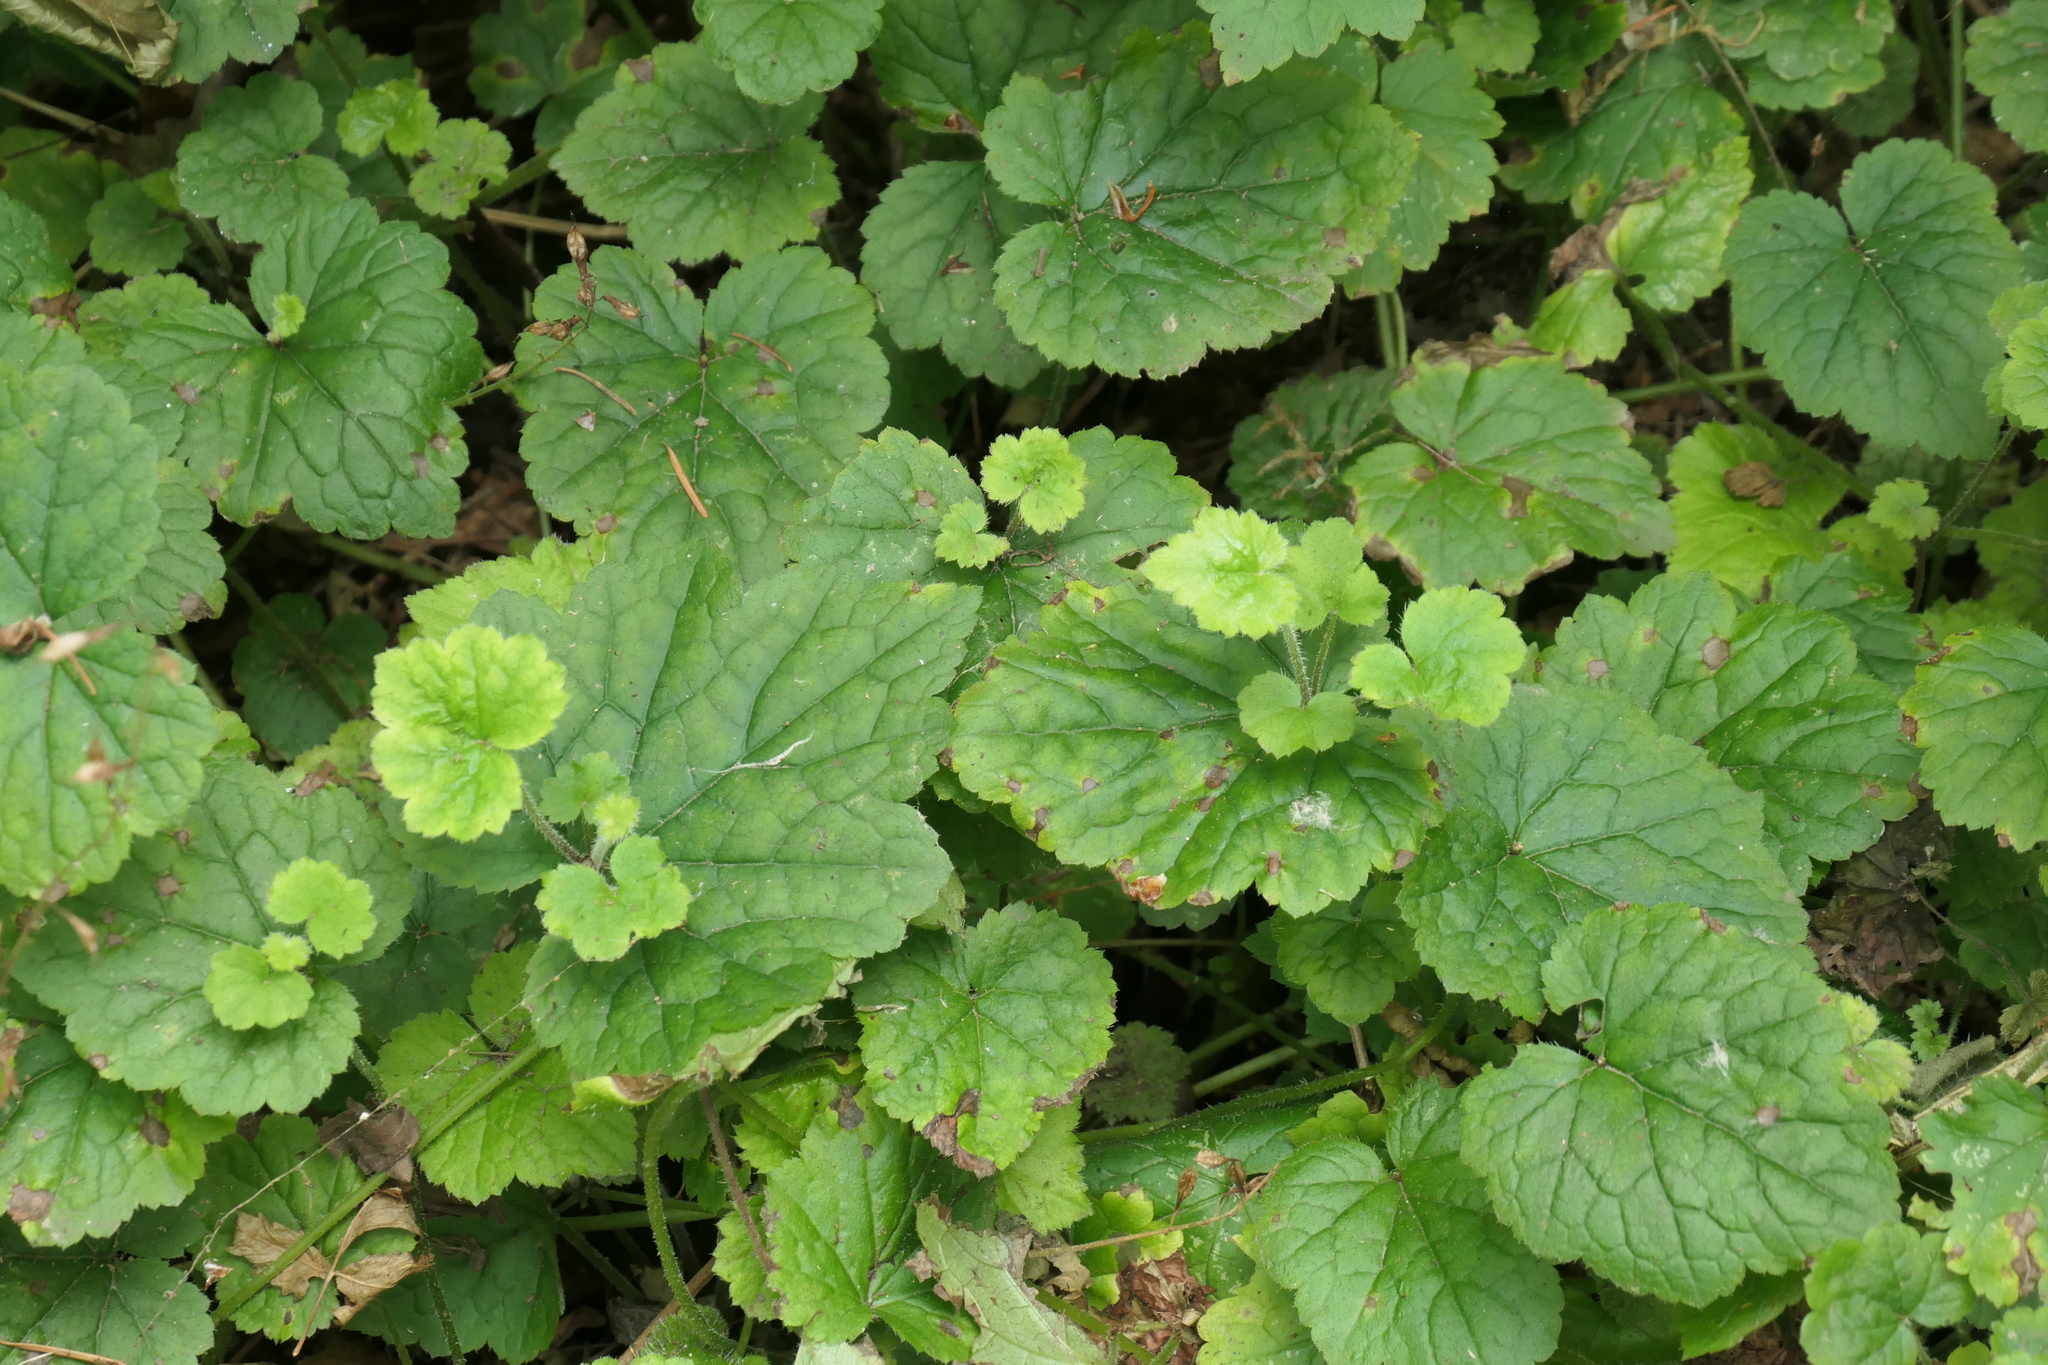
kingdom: Plantae
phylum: Tracheophyta
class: Magnoliopsida
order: Saxifragales
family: Saxifragaceae
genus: Tolmiea
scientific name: Tolmiea menziesii
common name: Pick-a-back-plant
